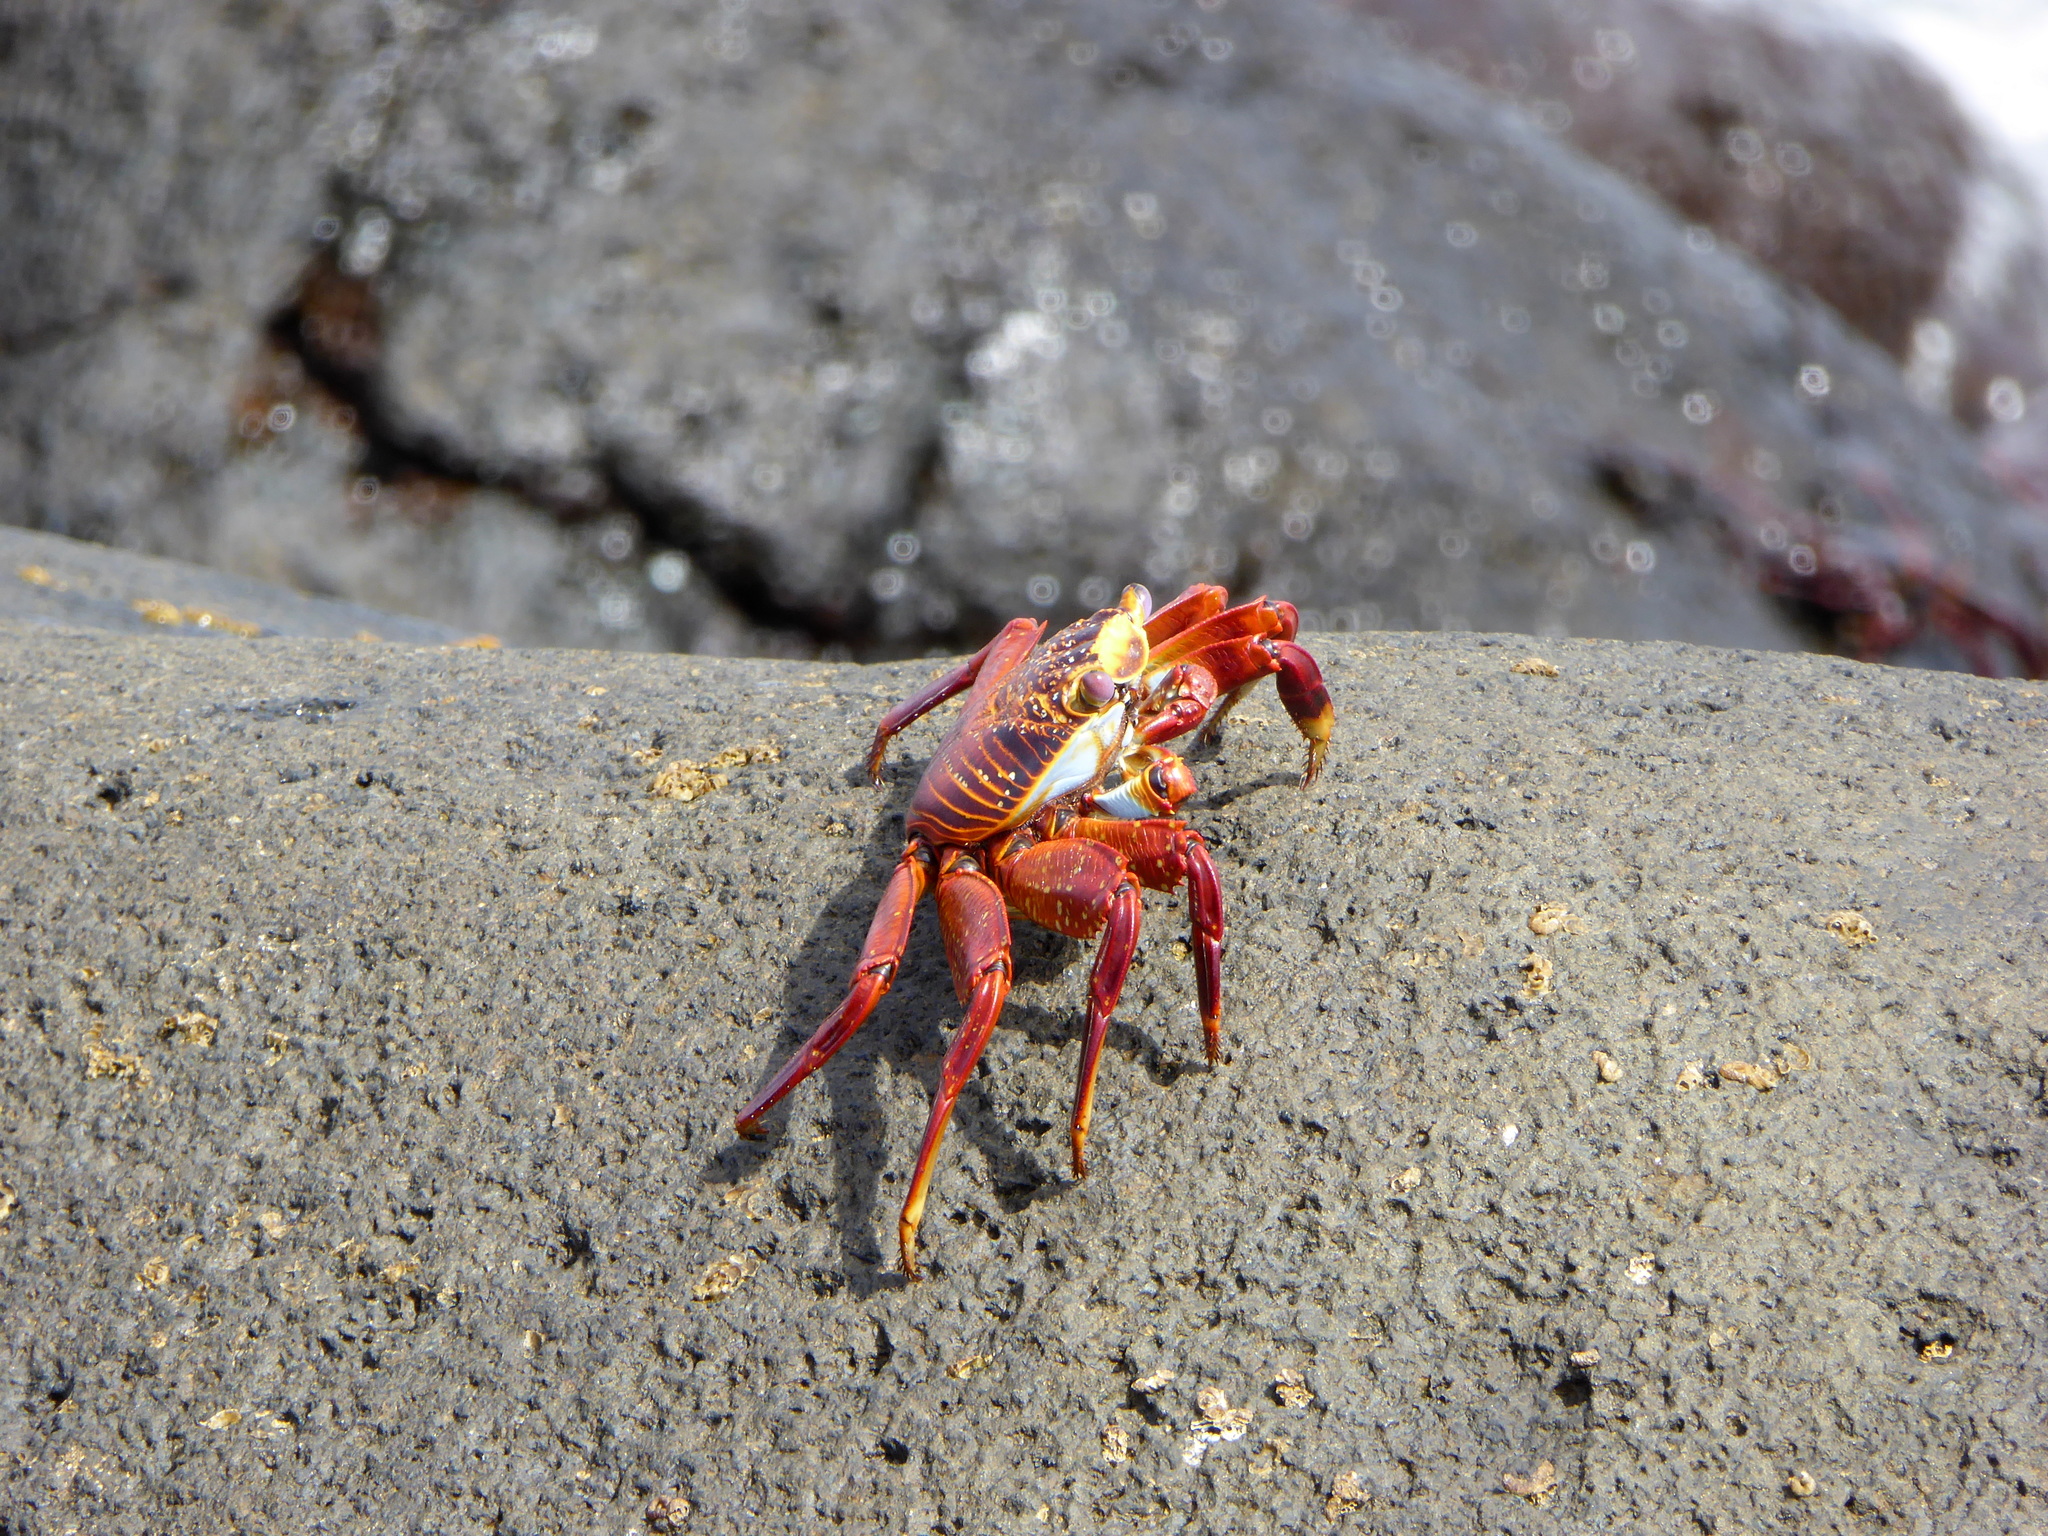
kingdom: Animalia
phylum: Arthropoda
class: Malacostraca
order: Decapoda
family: Grapsidae
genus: Grapsus
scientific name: Grapsus grapsus
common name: Sally lightfoot
